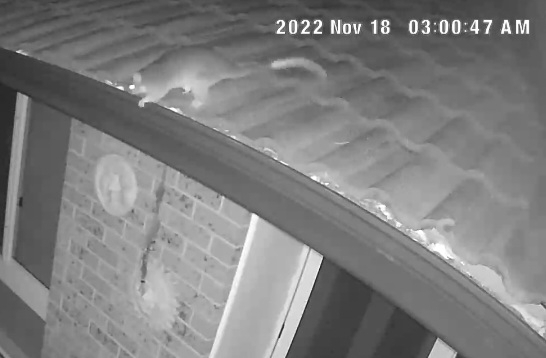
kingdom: Animalia
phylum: Chordata
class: Mammalia
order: Diprotodontia
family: Pseudocheiridae
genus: Pseudocheirus
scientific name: Pseudocheirus peregrinus
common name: Common ringtail possum
